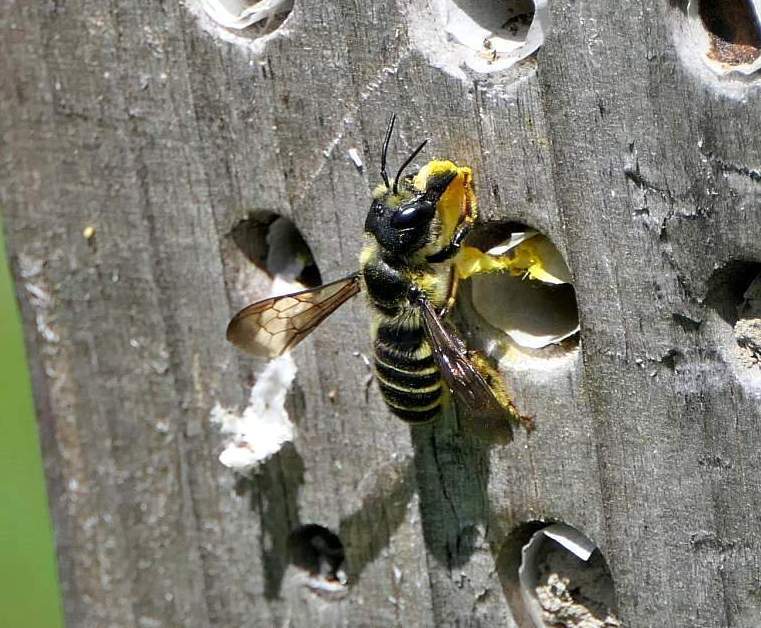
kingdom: Animalia
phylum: Arthropoda
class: Insecta
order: Hymenoptera
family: Megachilidae
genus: Megachile
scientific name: Megachile pugnata
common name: Pugnacious leafcutter bee
